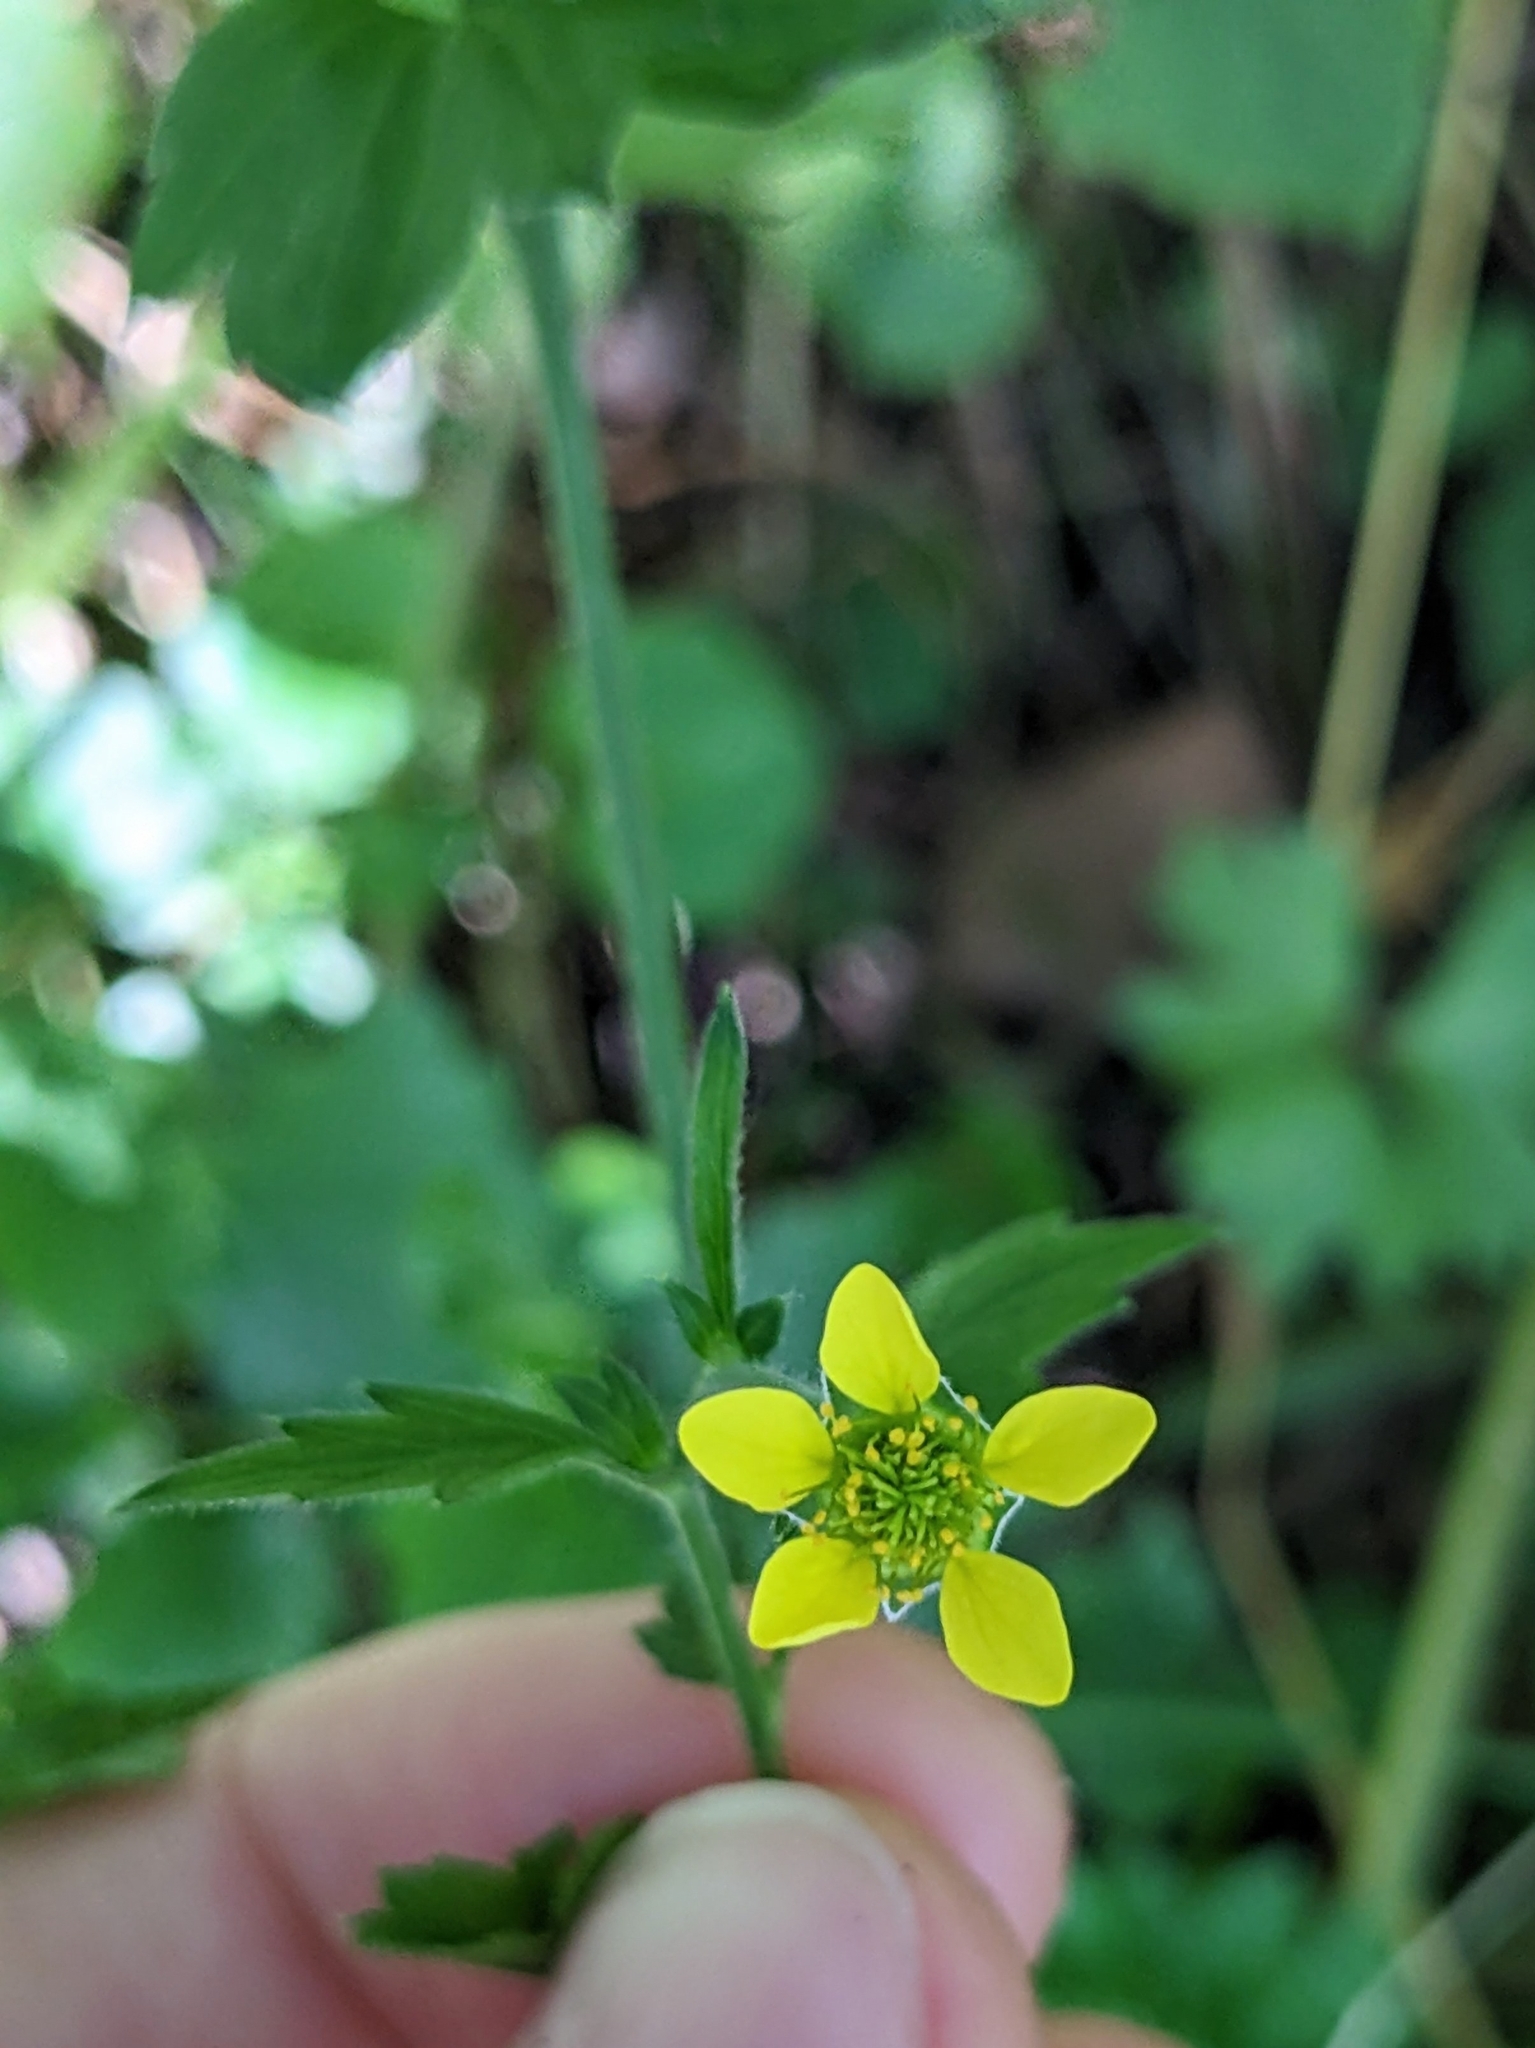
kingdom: Plantae
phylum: Tracheophyta
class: Magnoliopsida
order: Rosales
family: Rosaceae
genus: Geum
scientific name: Geum urbanum
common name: Wood avens
